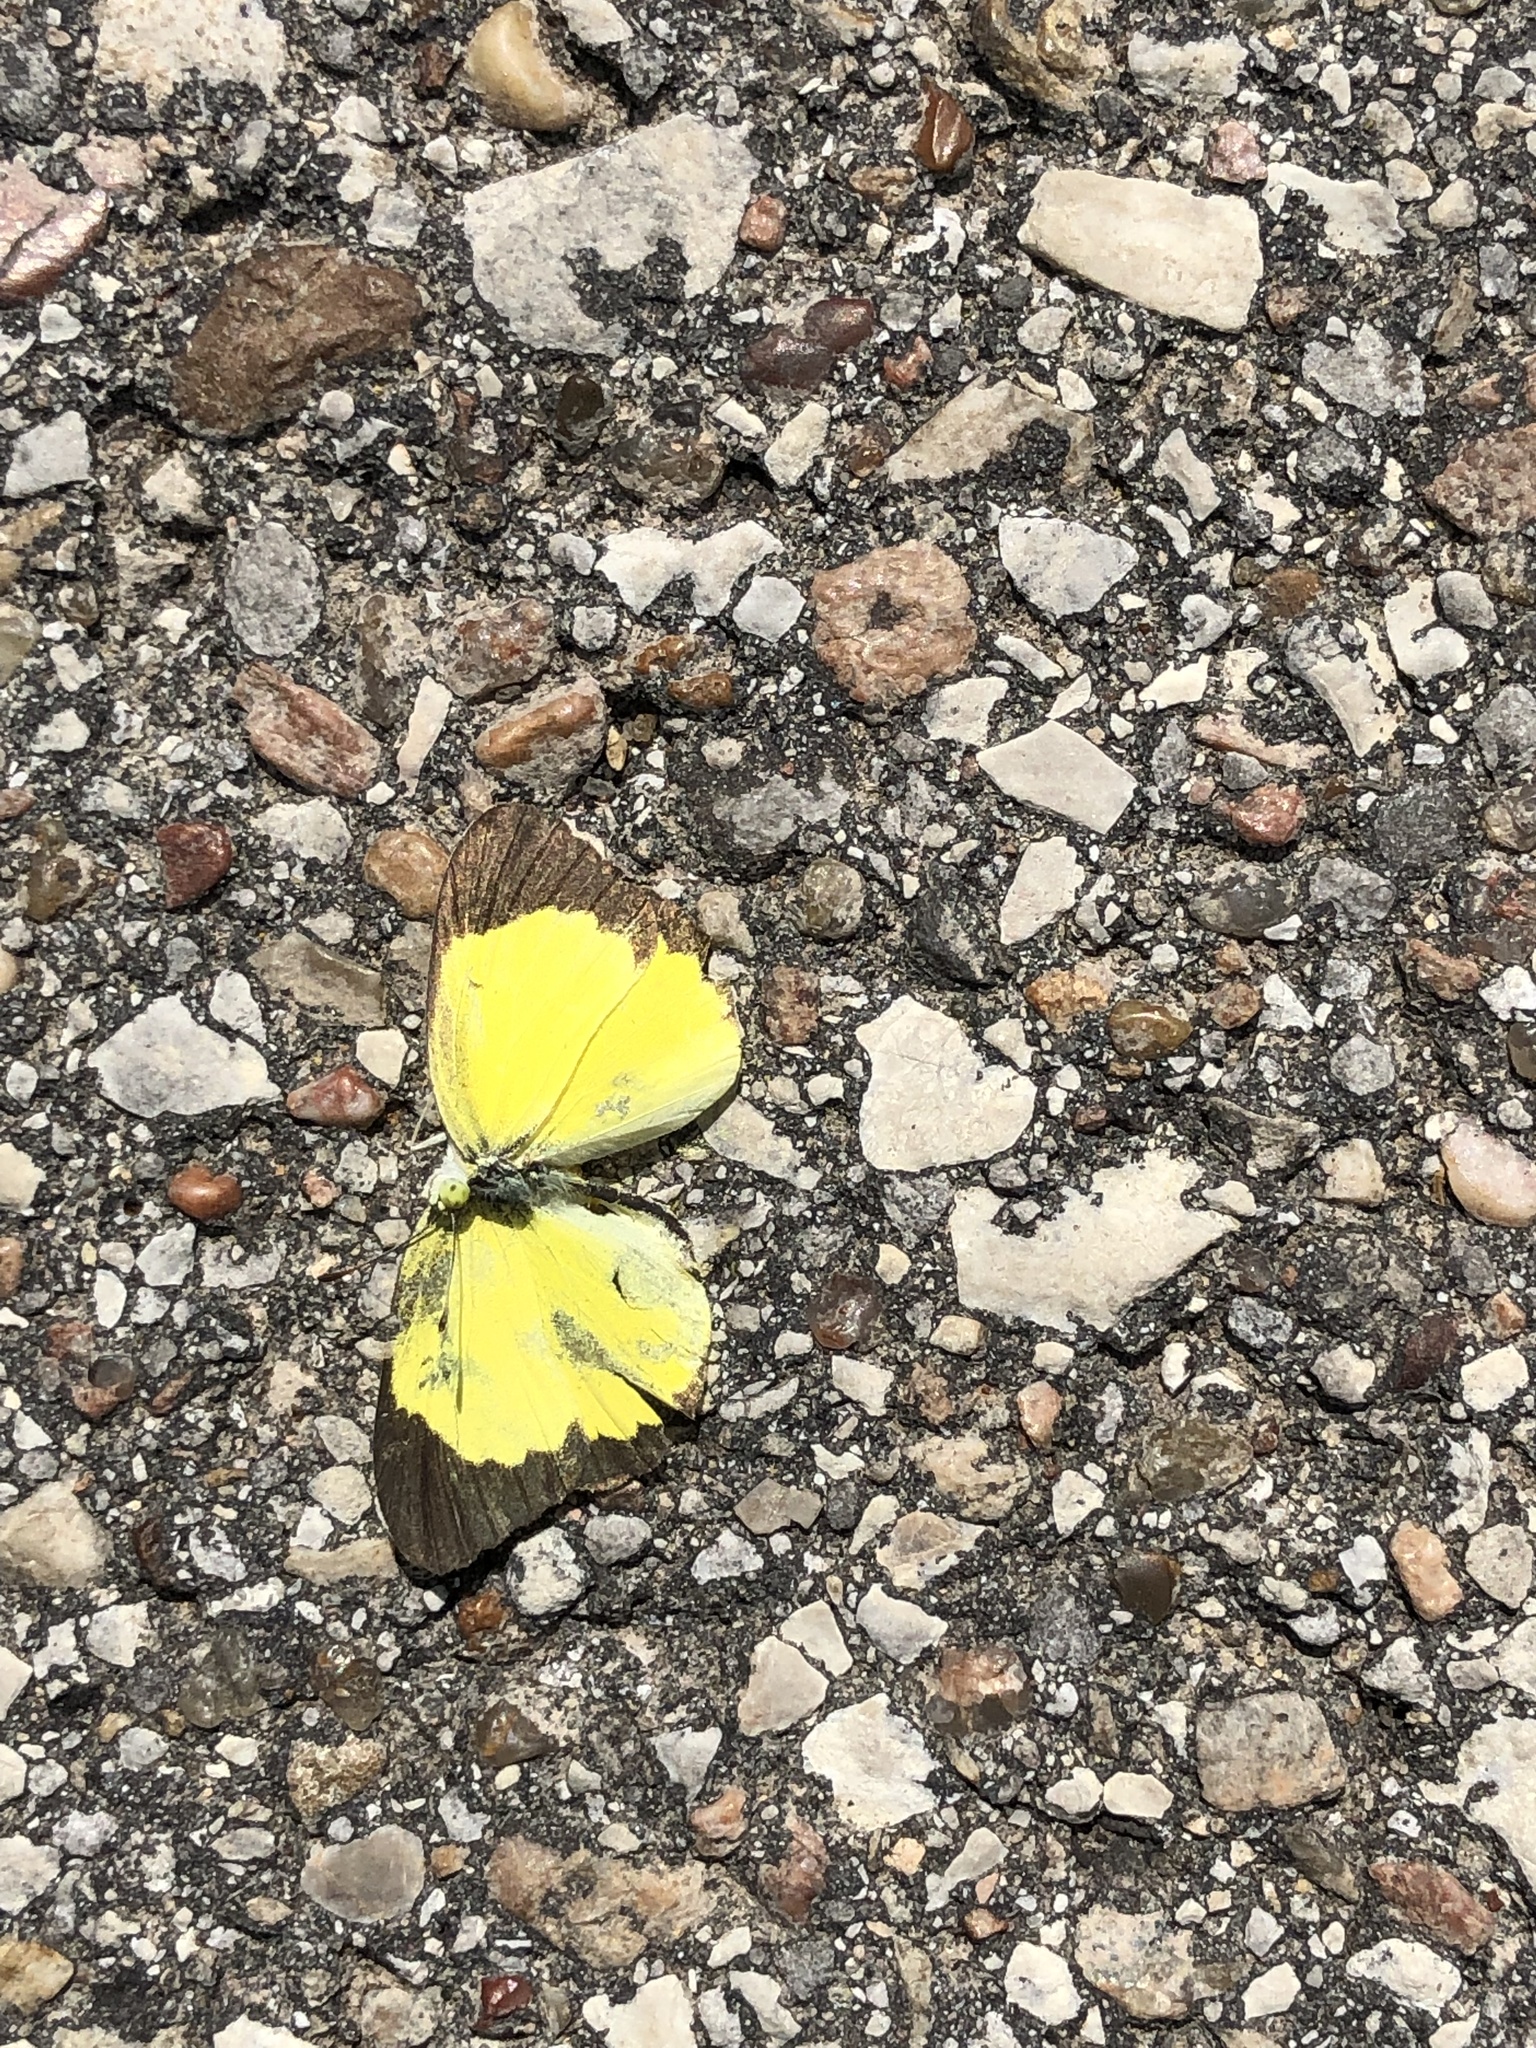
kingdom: Animalia
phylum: Arthropoda
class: Insecta
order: Lepidoptera
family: Pieridae
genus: Pyrisitia
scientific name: Pyrisitia lisa
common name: Little yellow
